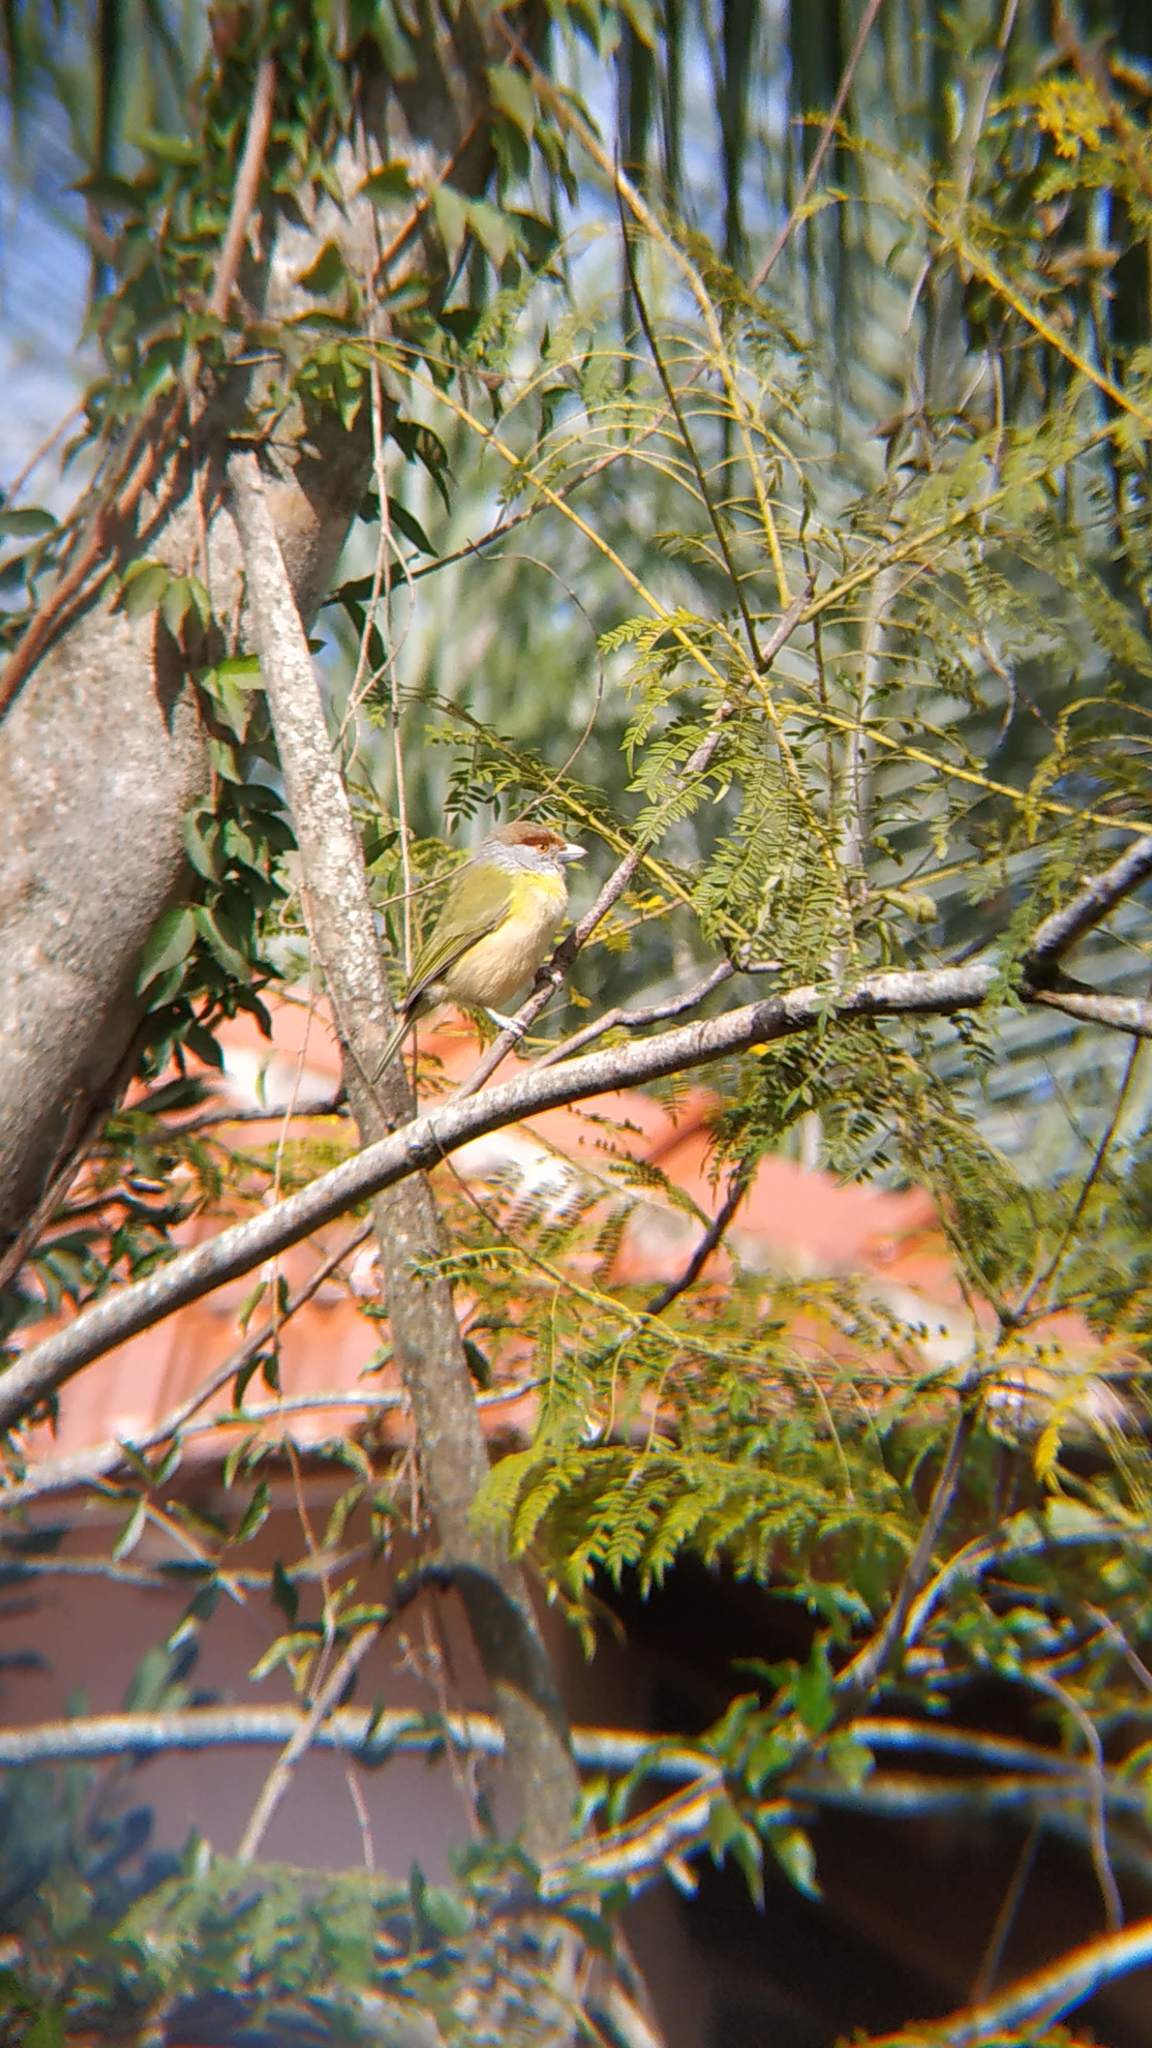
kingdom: Animalia
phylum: Chordata
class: Aves
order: Passeriformes
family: Vireonidae
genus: Cyclarhis
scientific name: Cyclarhis gujanensis
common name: Rufous-browed peppershrike
